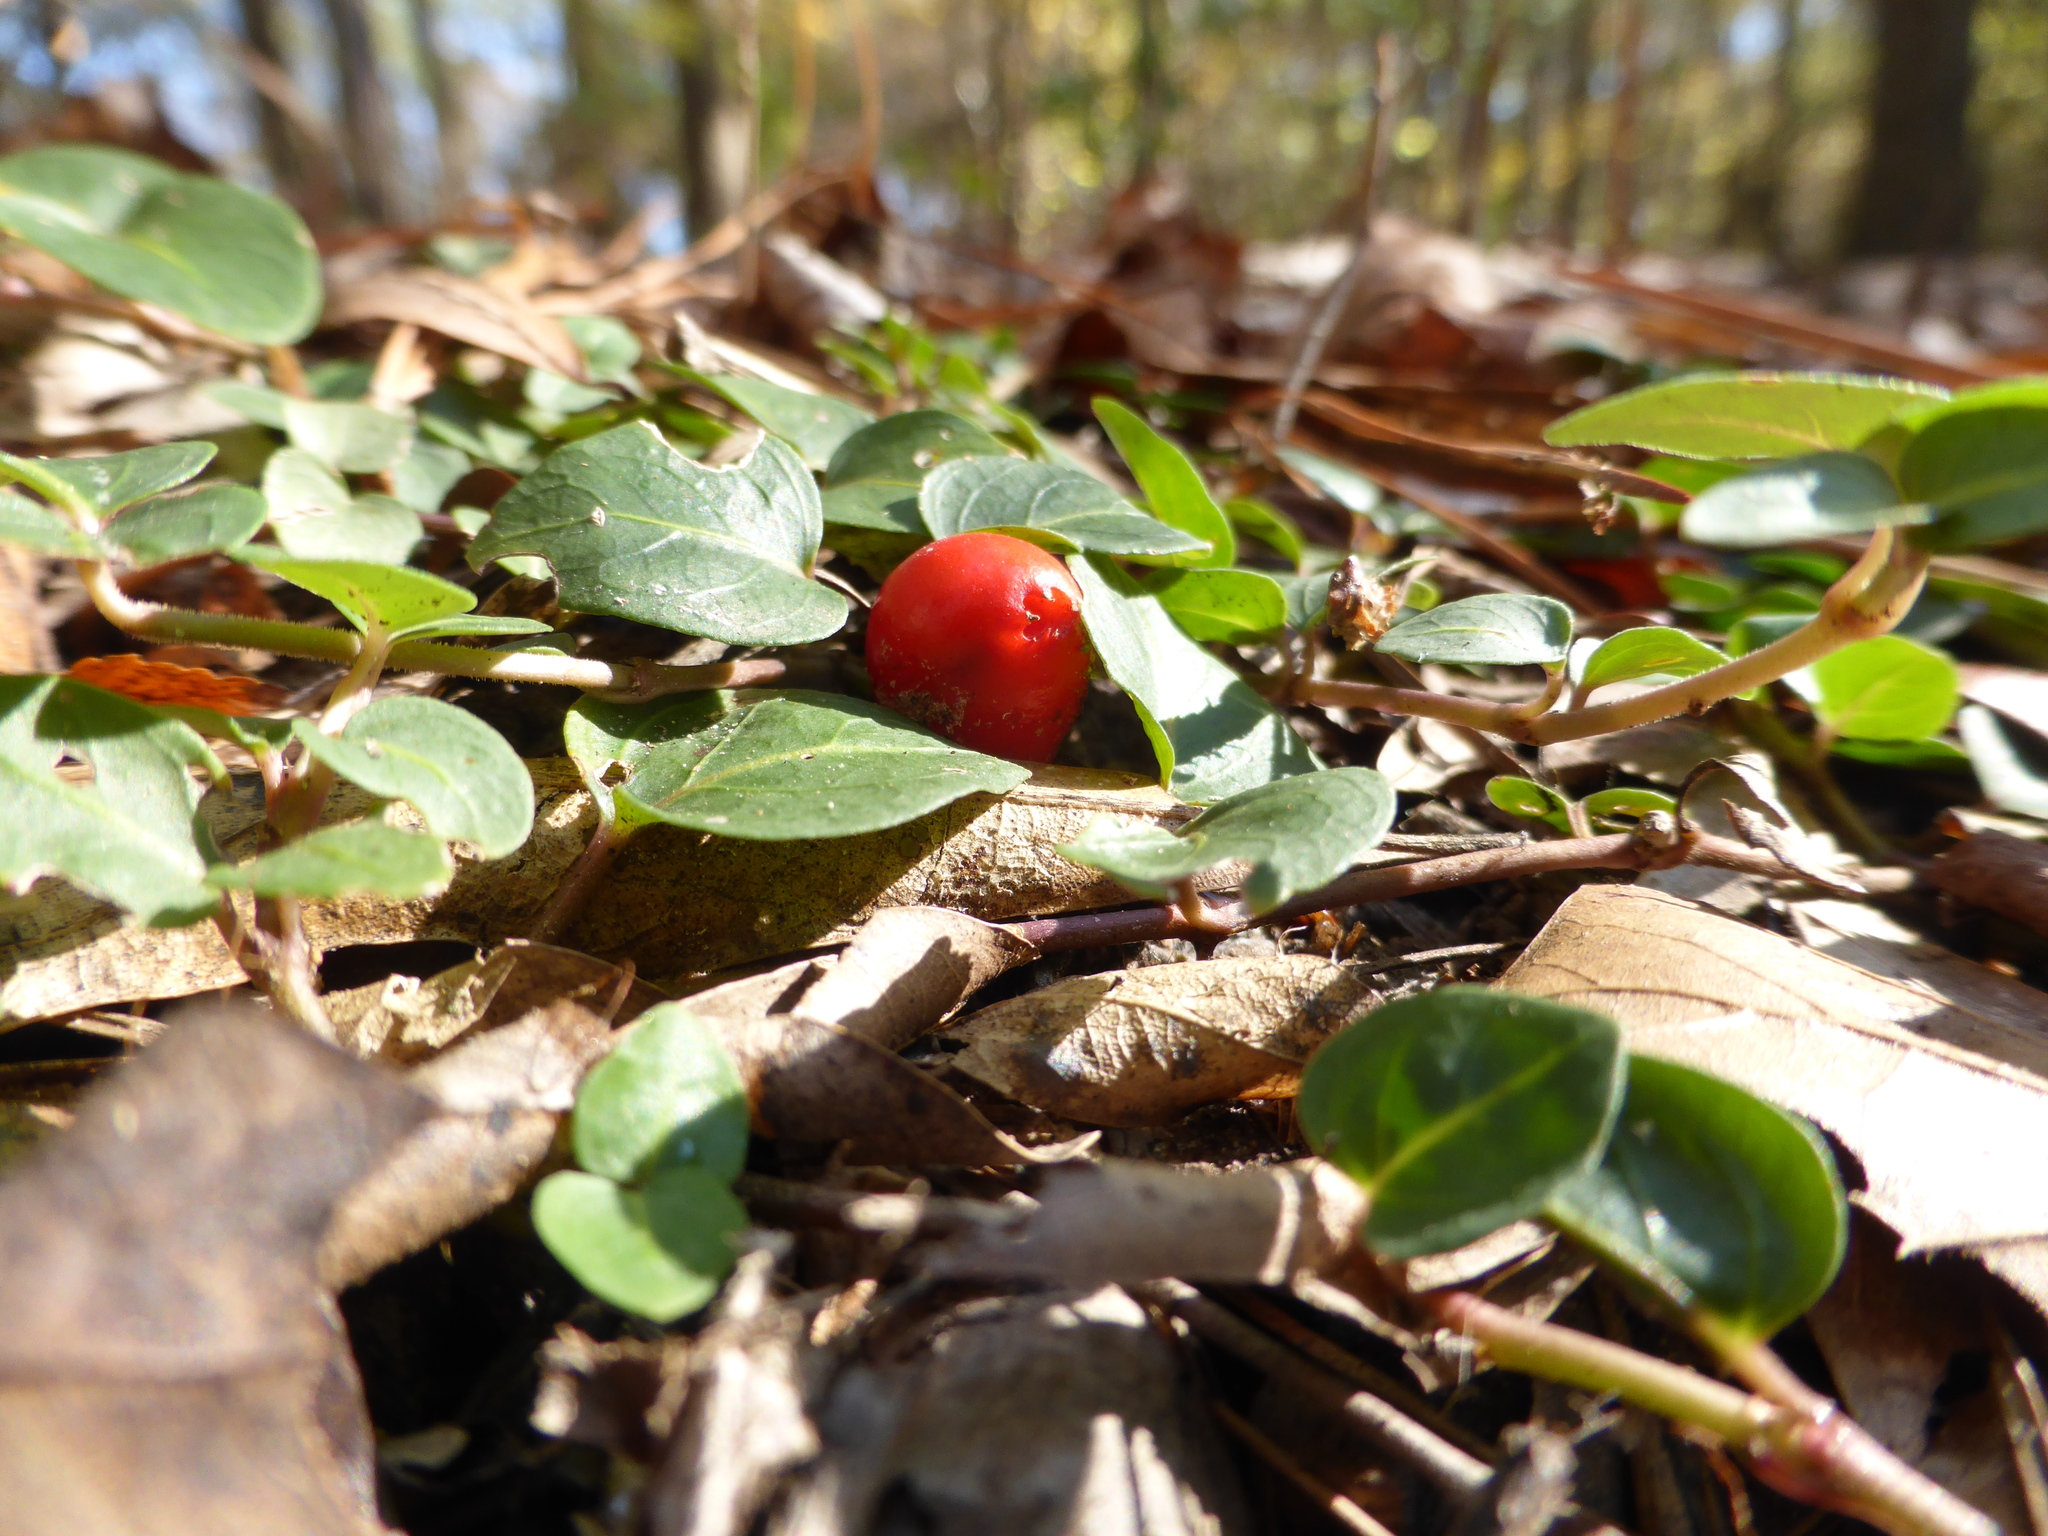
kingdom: Plantae
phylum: Tracheophyta
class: Magnoliopsida
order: Gentianales
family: Rubiaceae
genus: Mitchella
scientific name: Mitchella repens
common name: Partridge-berry
